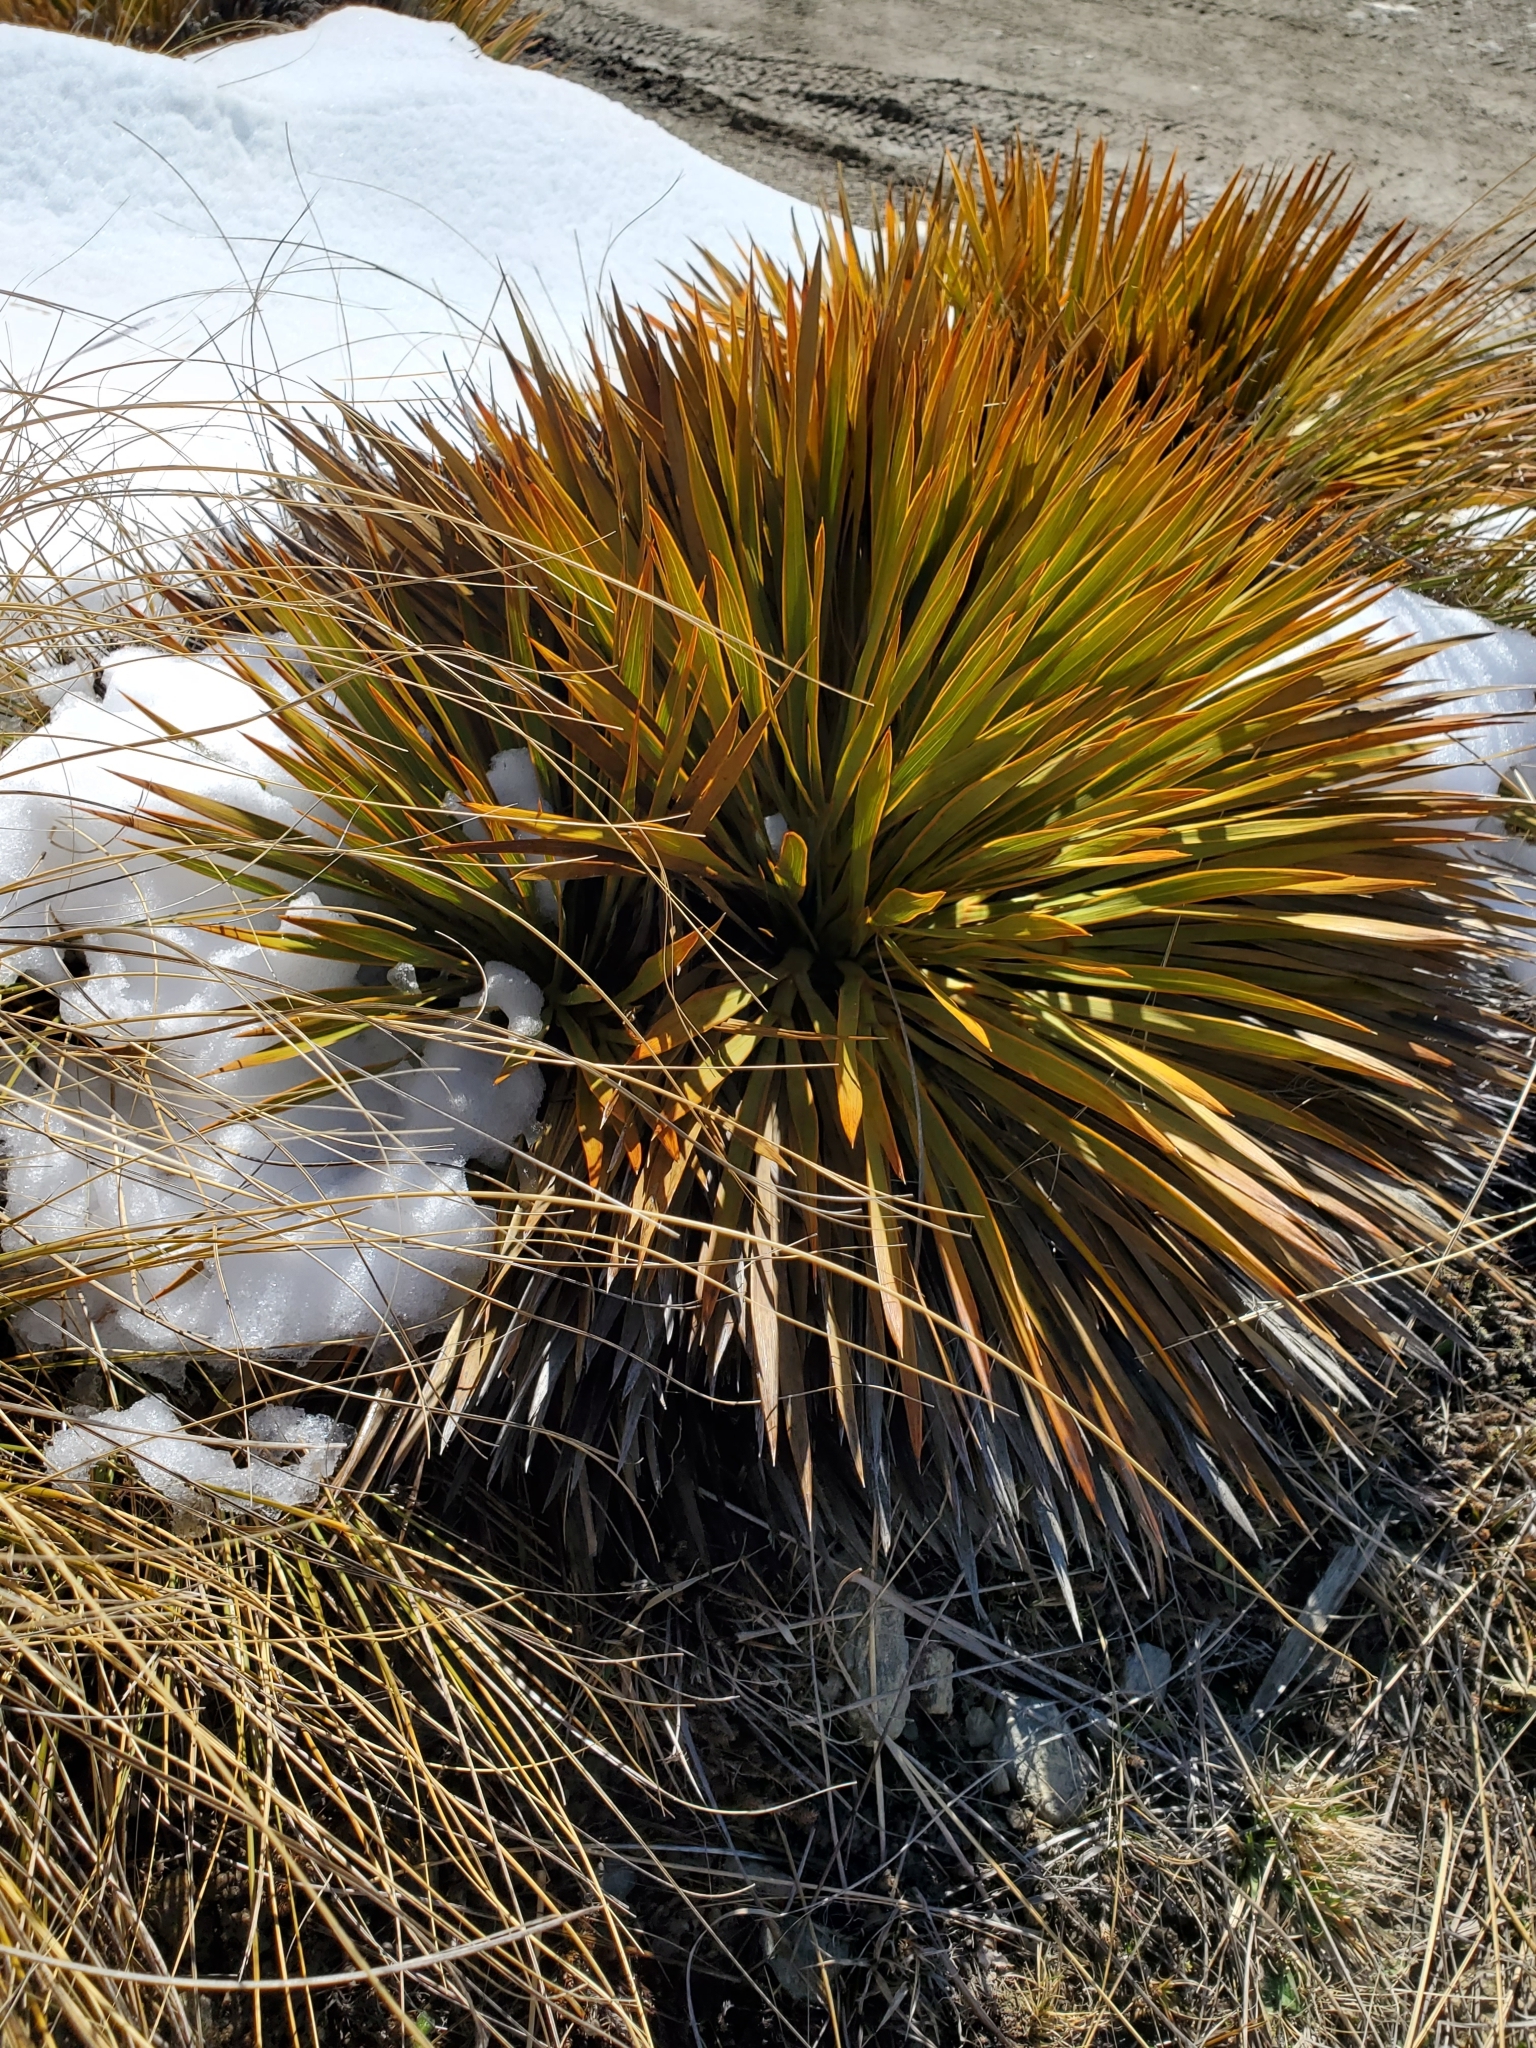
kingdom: Plantae
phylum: Tracheophyta
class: Magnoliopsida
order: Apiales
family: Apiaceae
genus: Aciphylla
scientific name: Aciphylla aurea
